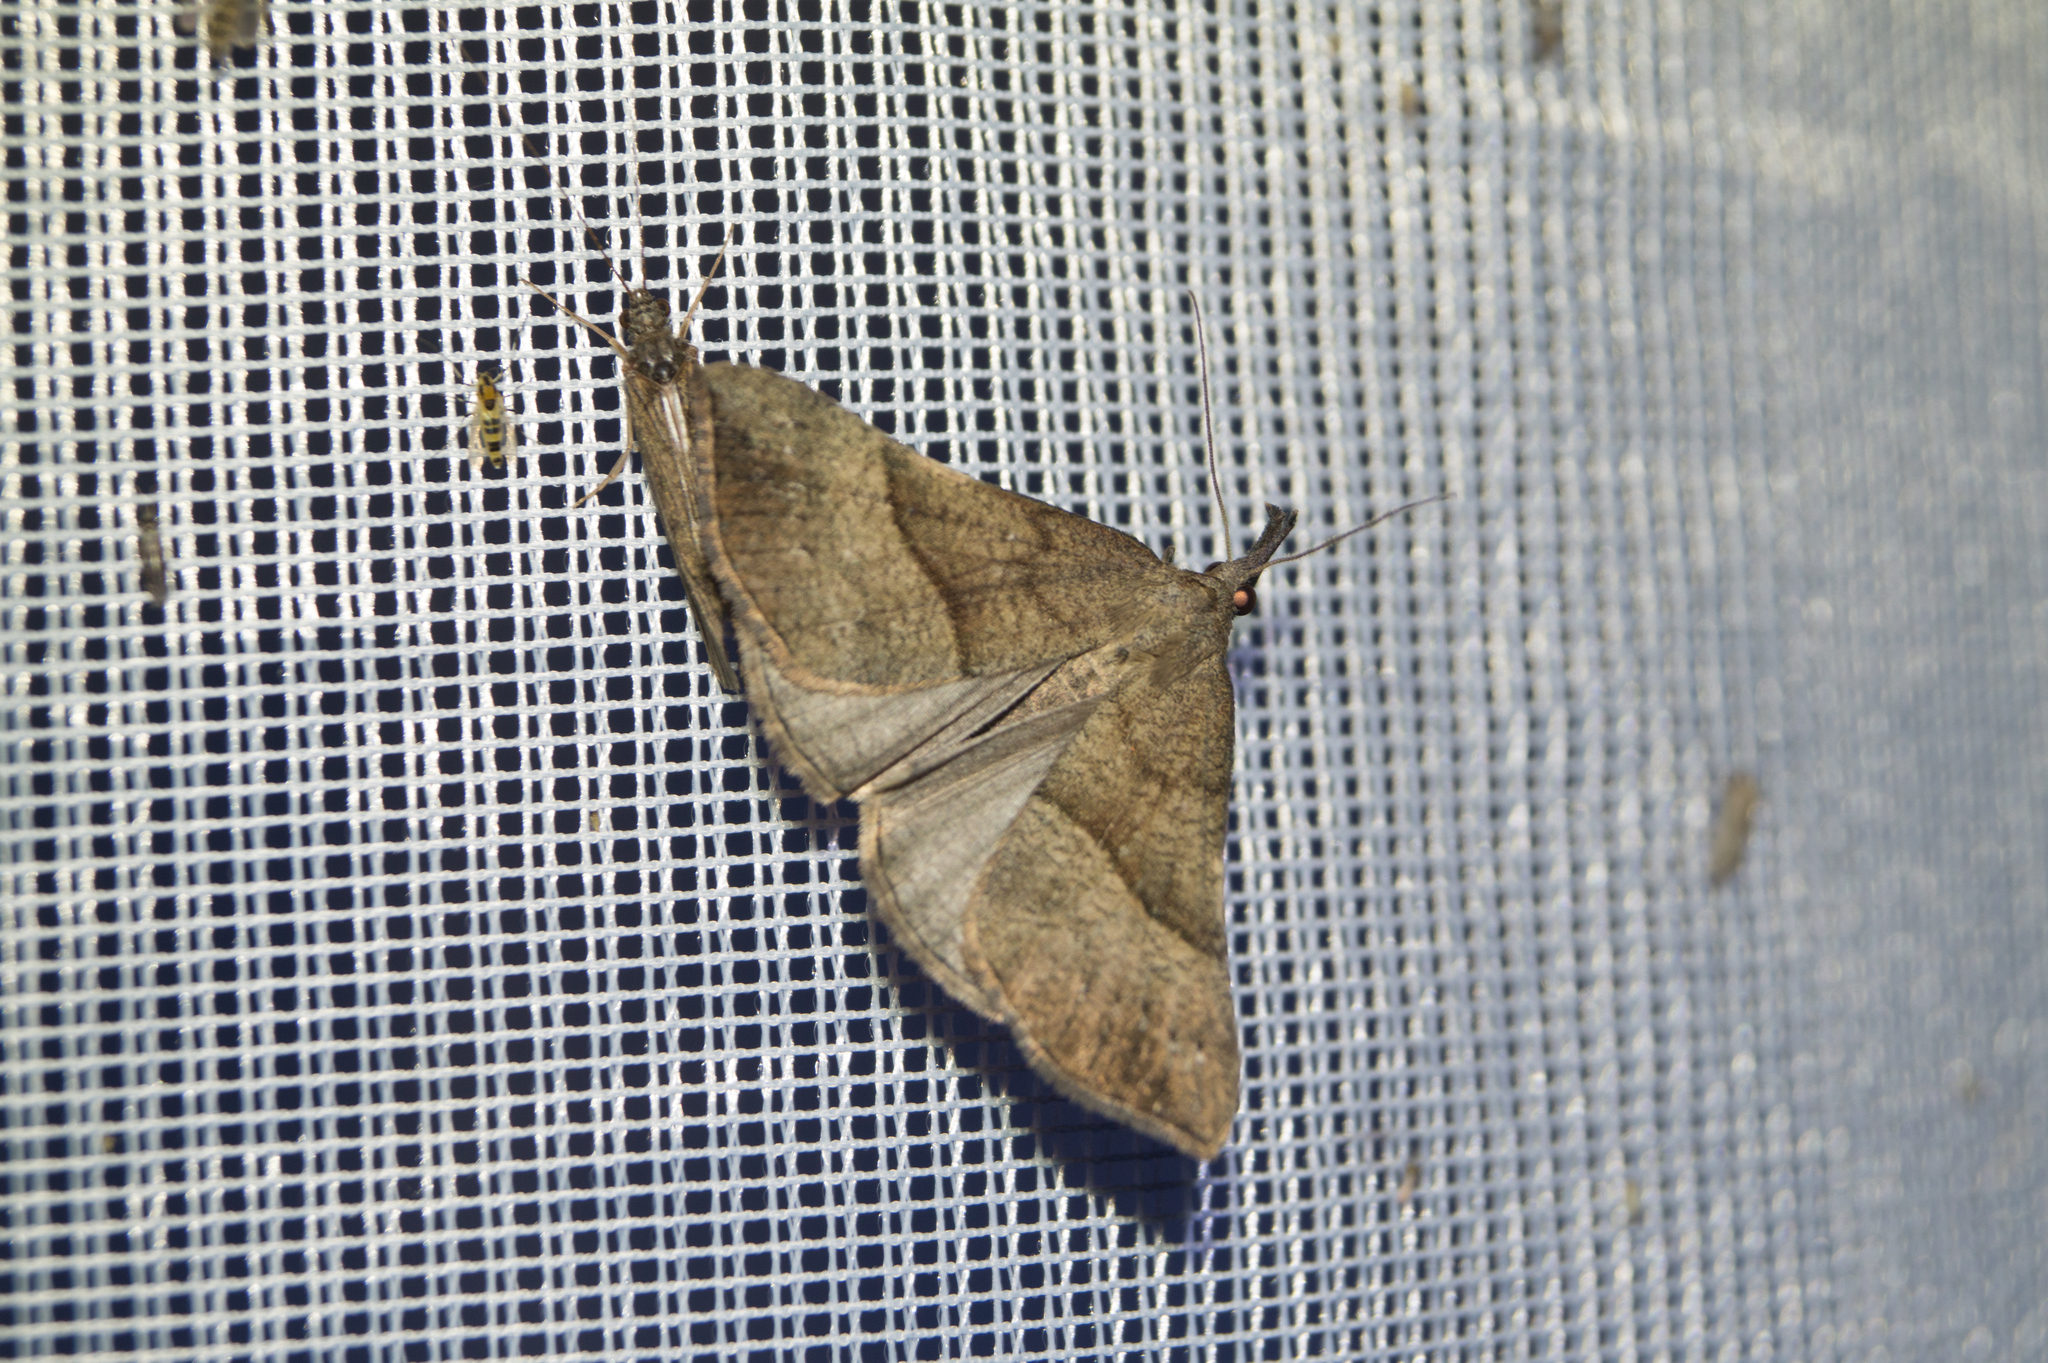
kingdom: Animalia
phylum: Arthropoda
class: Insecta
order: Lepidoptera
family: Erebidae
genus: Hypena
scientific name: Hypena proboscidalis
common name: Snout
